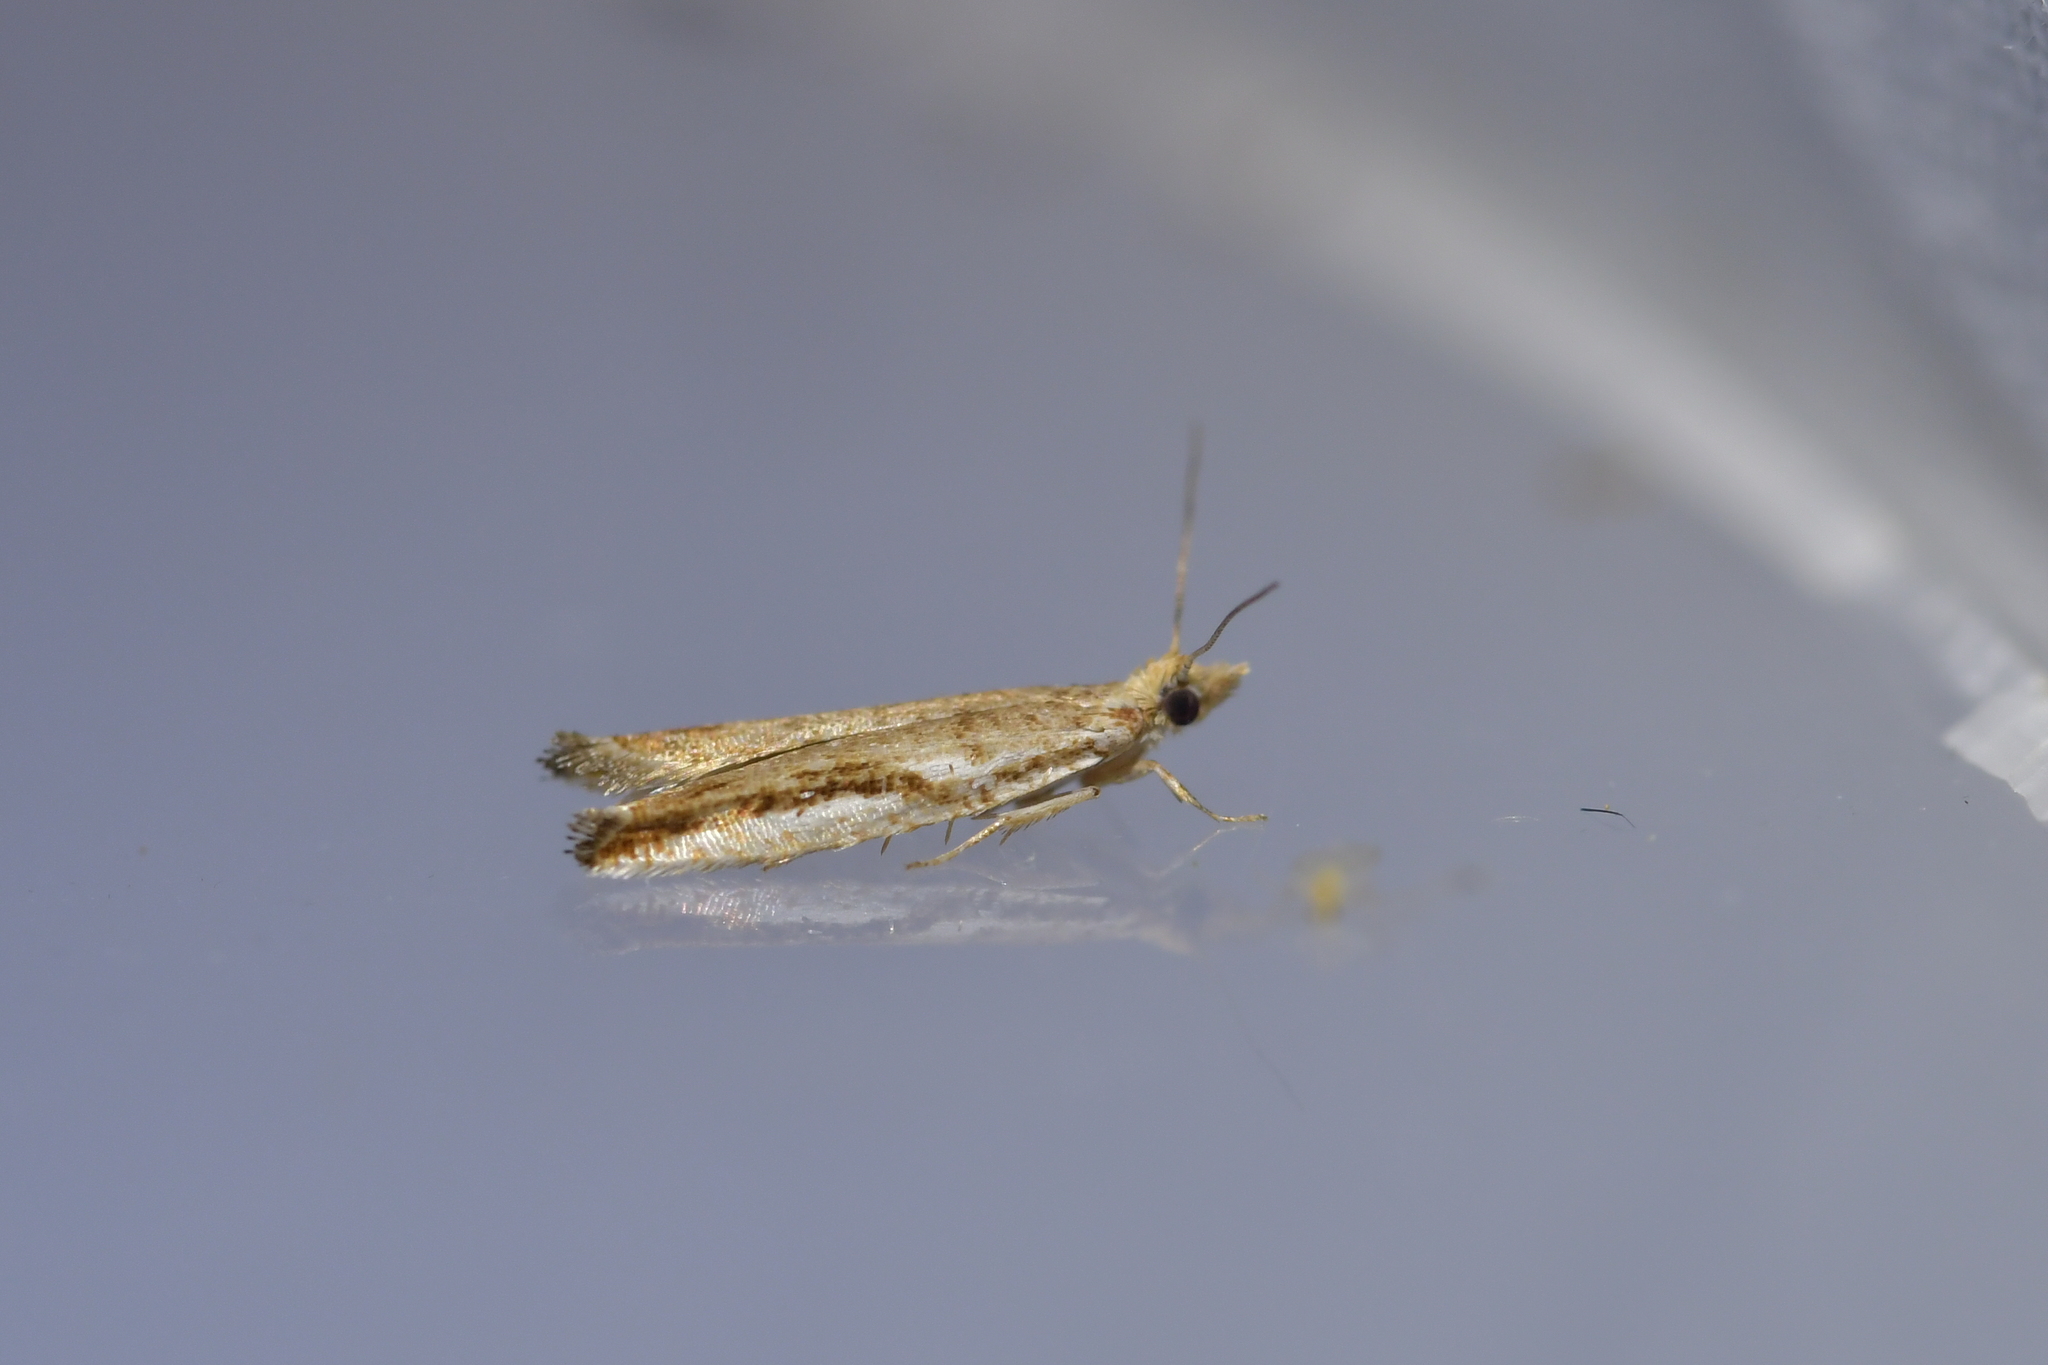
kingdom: Animalia
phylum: Arthropoda
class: Insecta
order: Lepidoptera
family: Tortricidae
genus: Holocola
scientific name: Holocola
